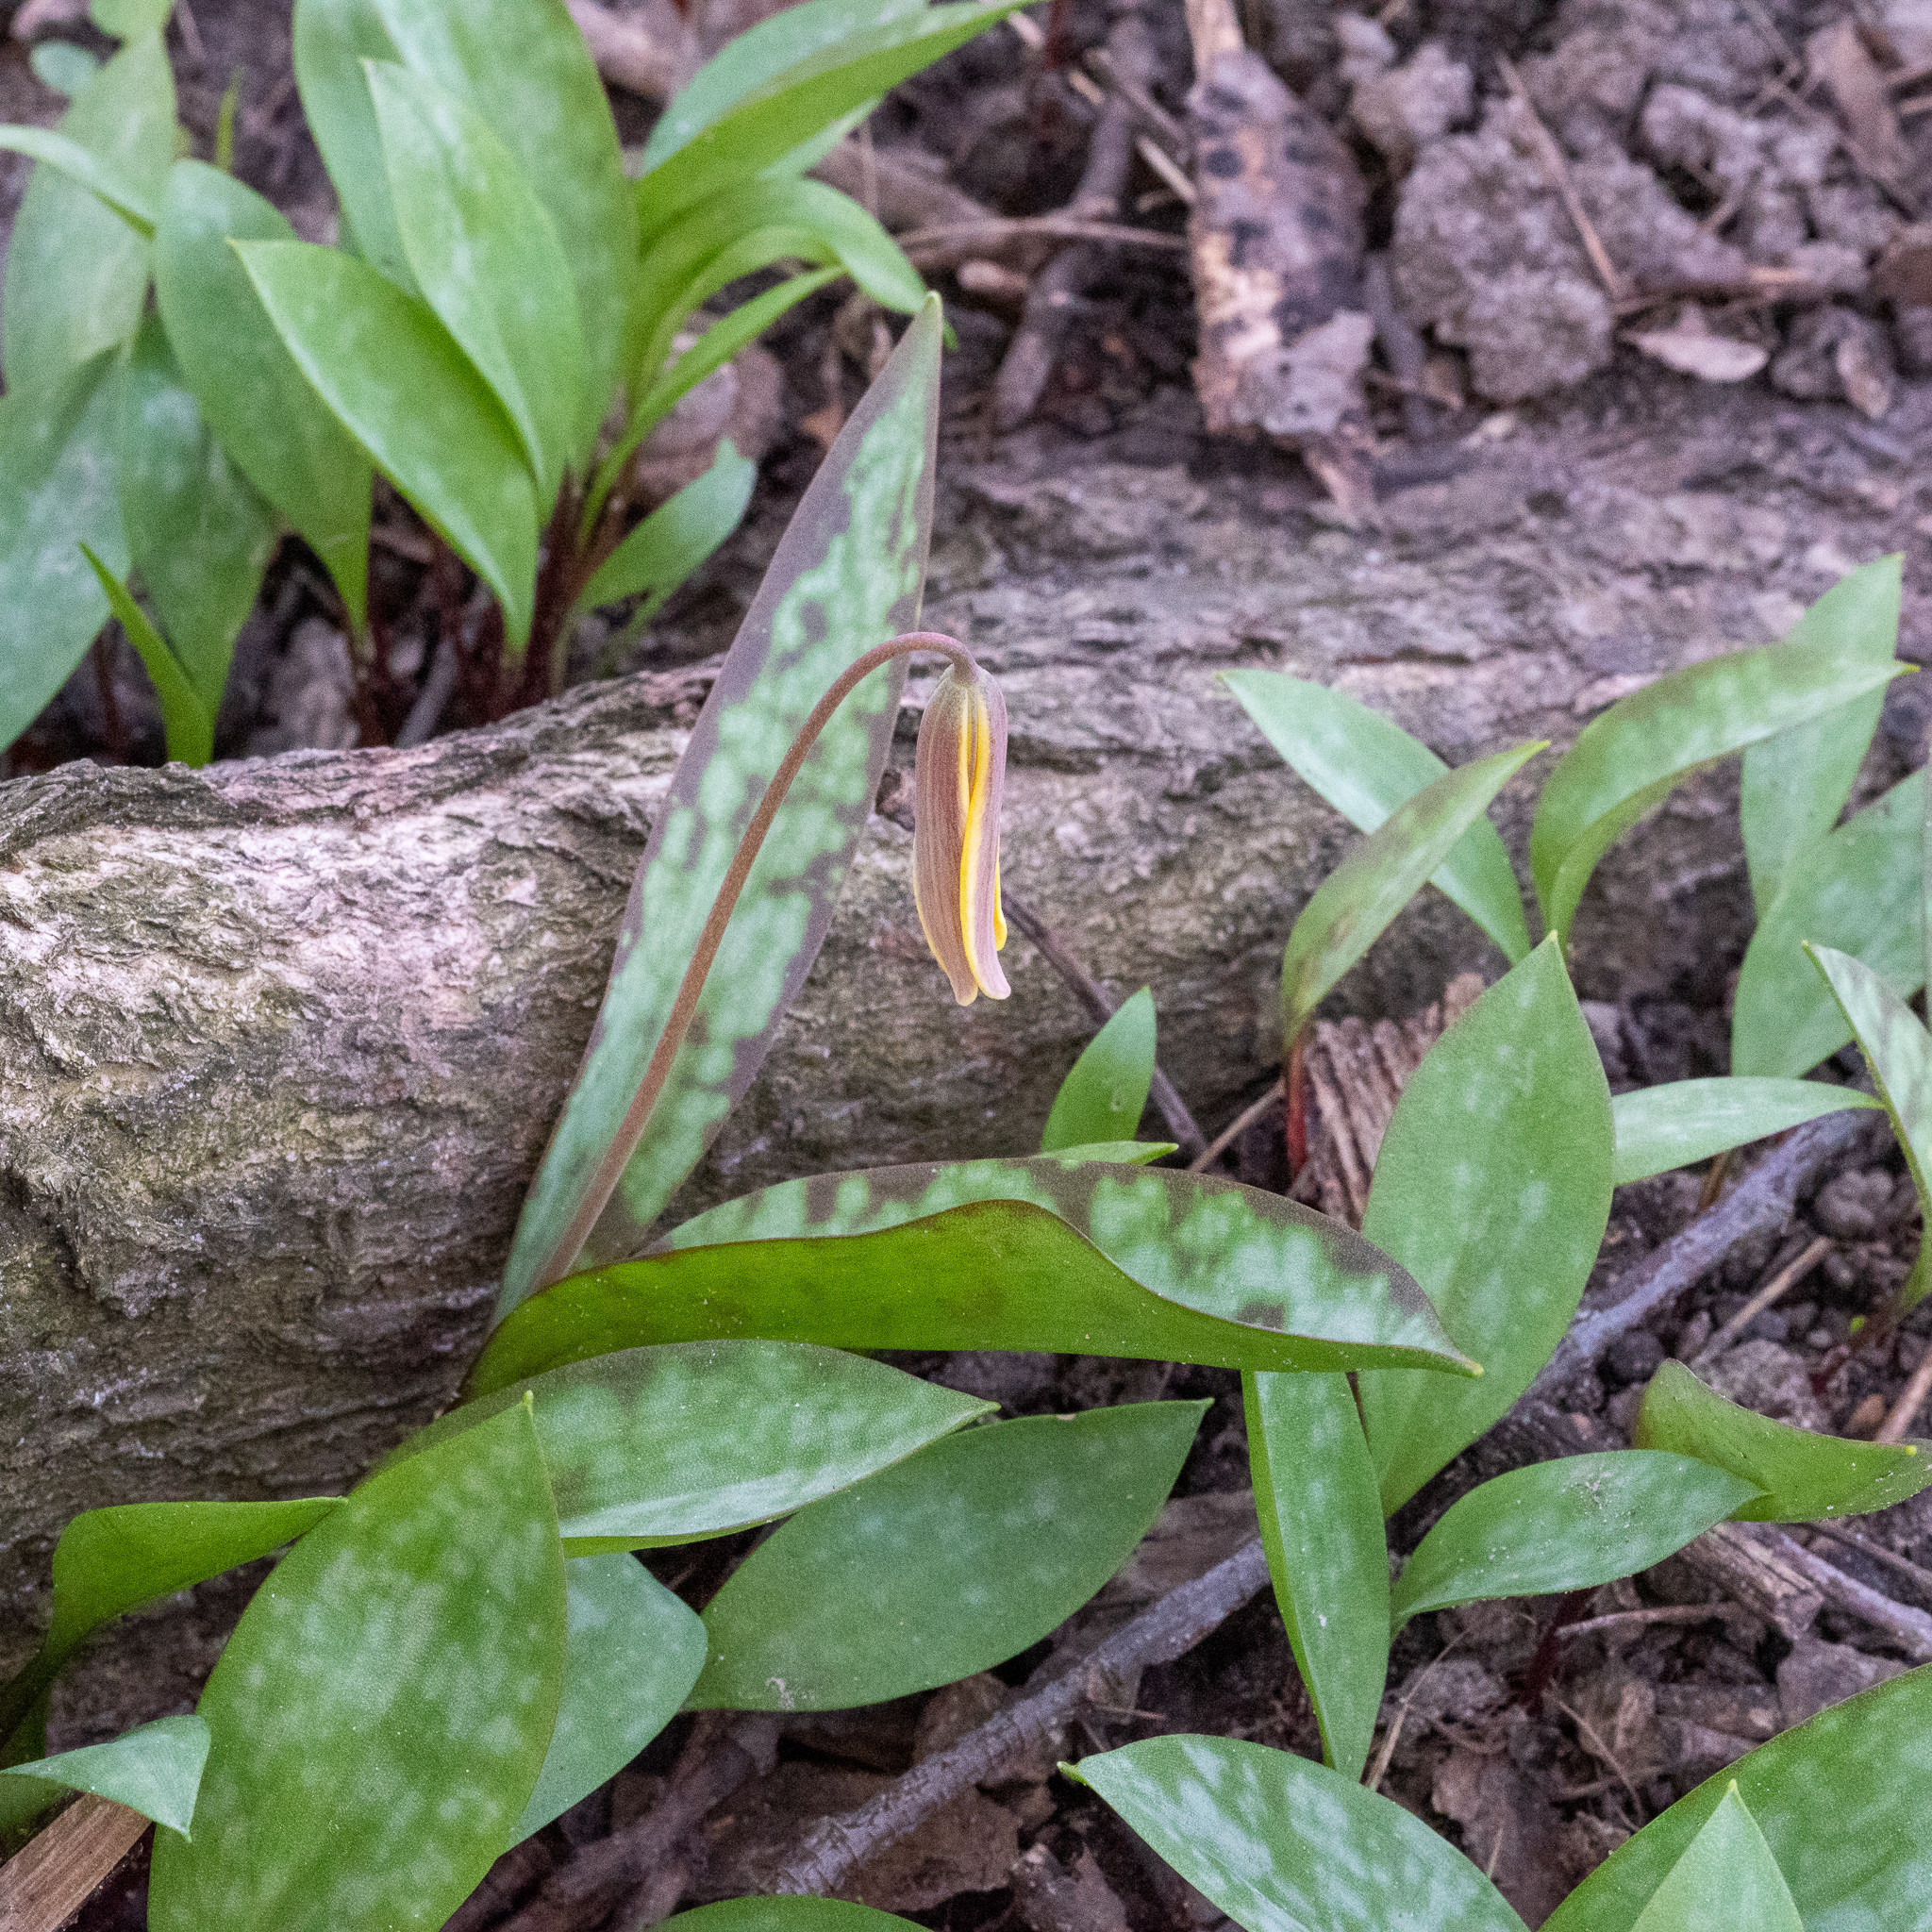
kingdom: Plantae
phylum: Tracheophyta
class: Liliopsida
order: Liliales
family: Liliaceae
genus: Erythronium
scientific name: Erythronium americanum
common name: Yellow adder's-tongue
